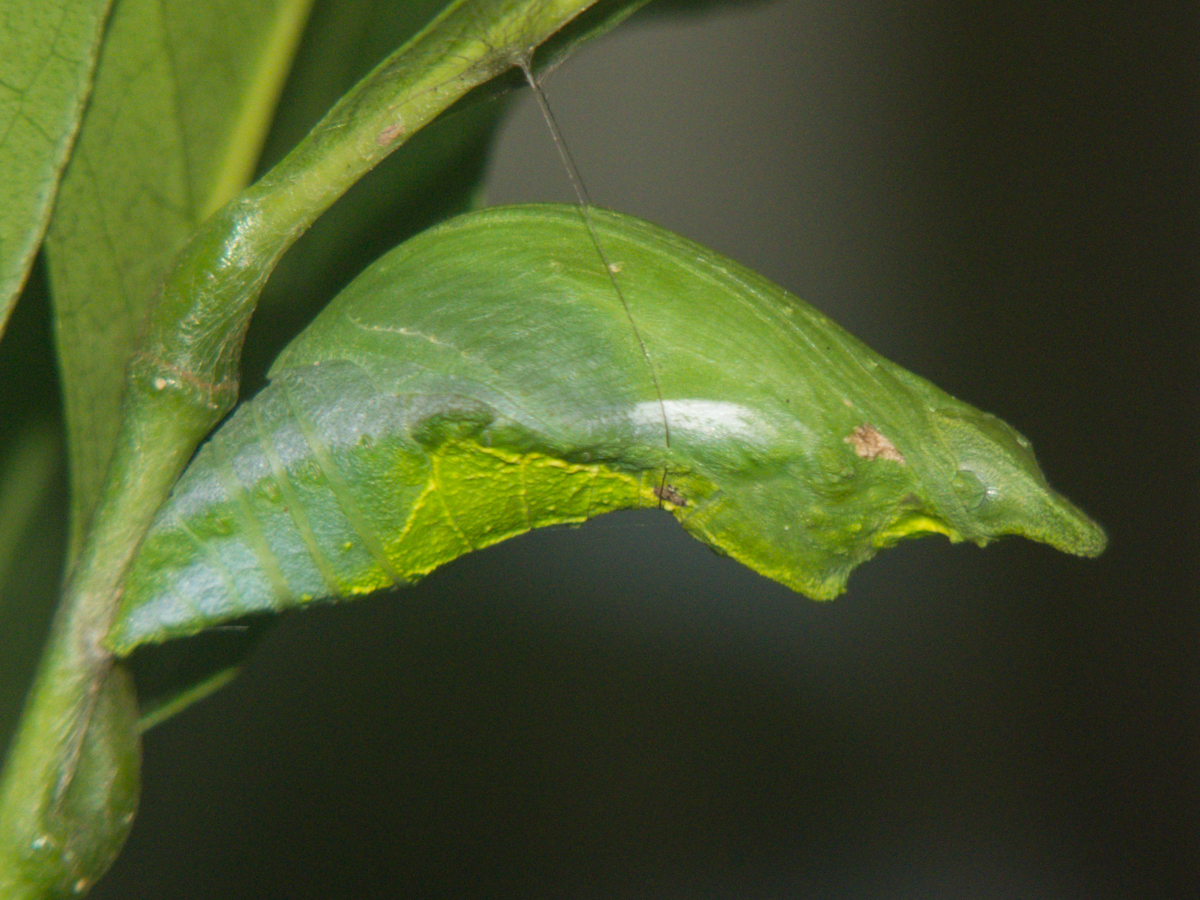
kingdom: Animalia
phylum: Arthropoda
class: Insecta
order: Lepidoptera
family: Papilionidae
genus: Papilio
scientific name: Papilio polytes
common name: Common mormon
